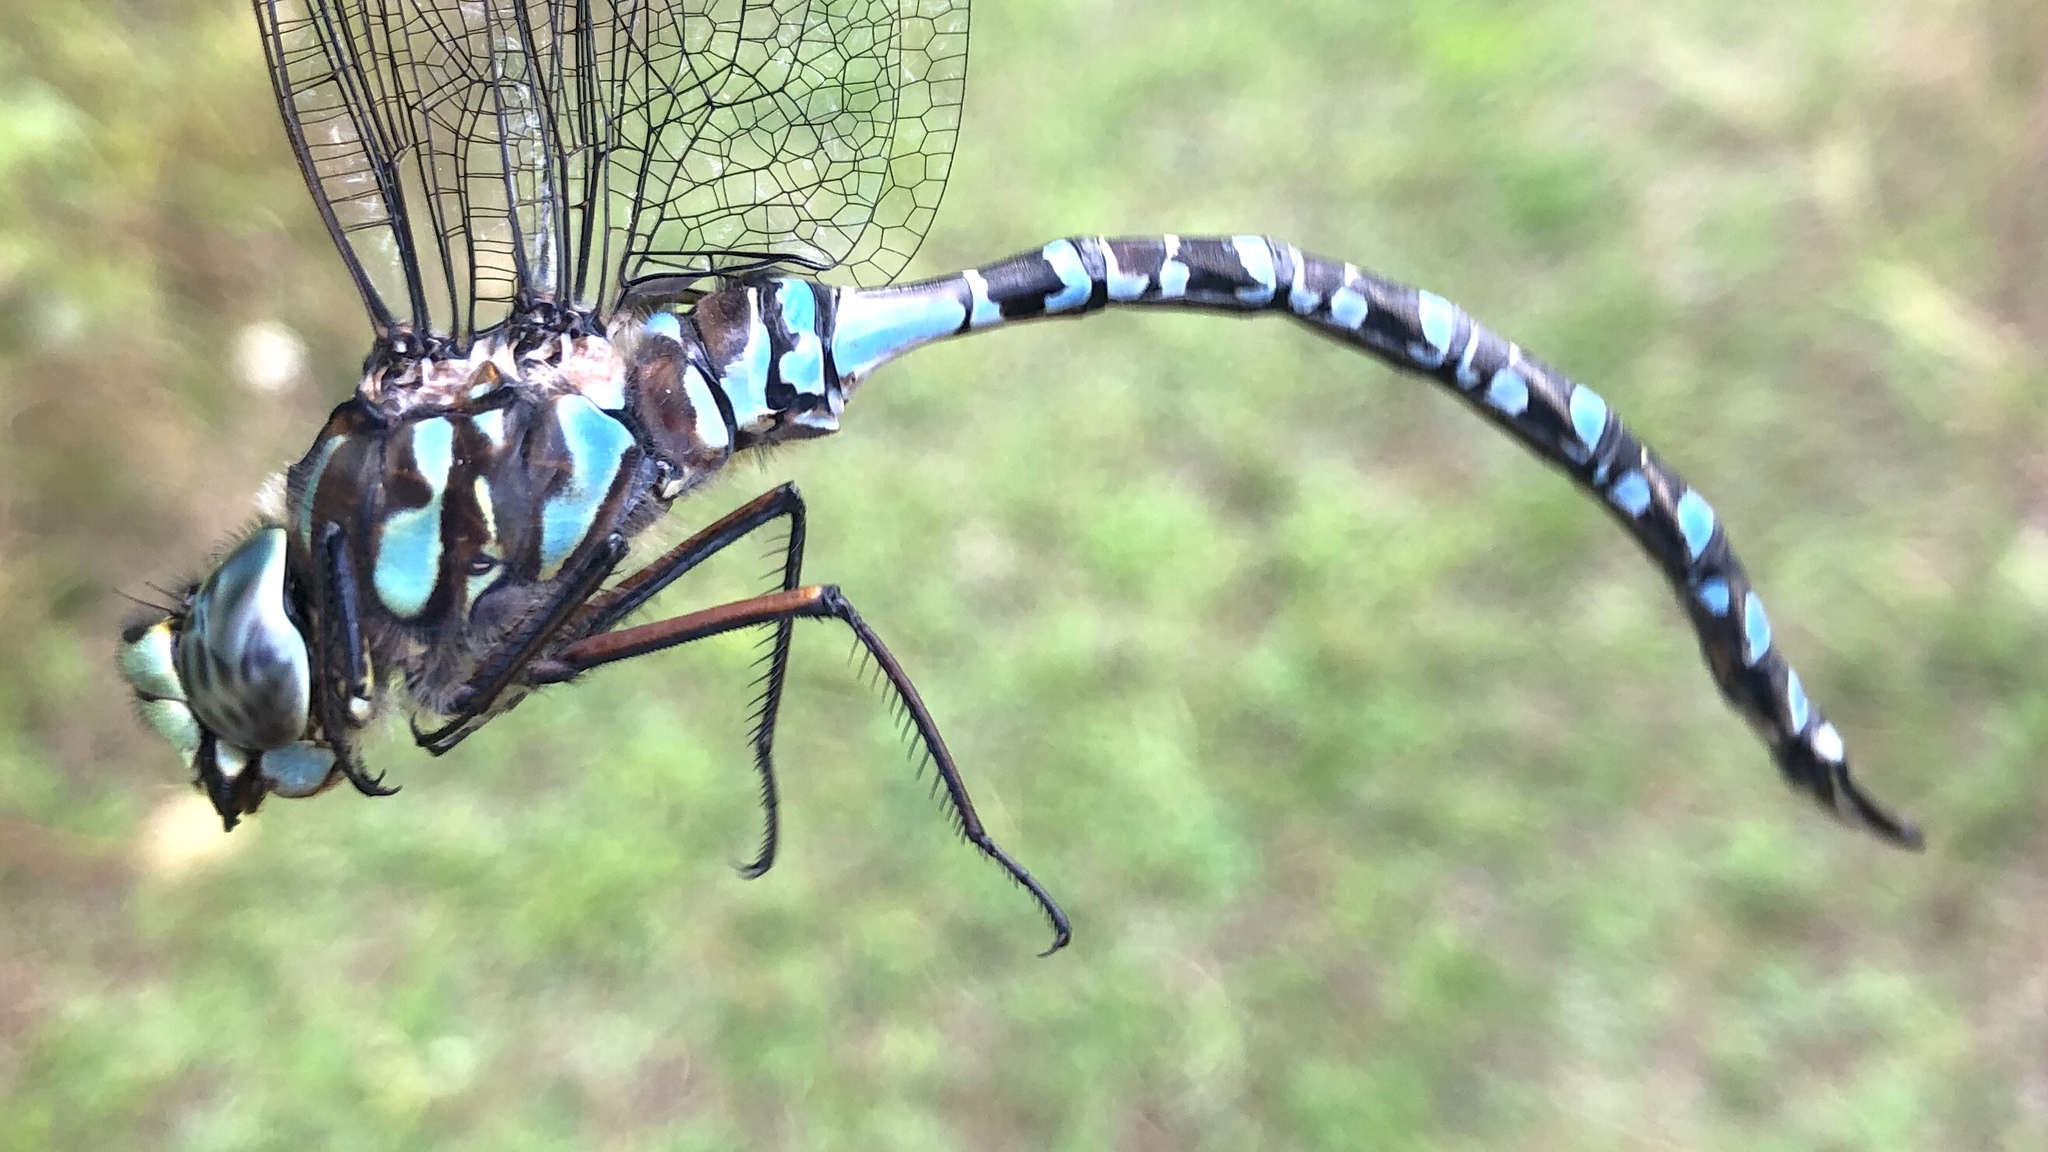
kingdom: Animalia
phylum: Arthropoda
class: Insecta
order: Odonata
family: Aeshnidae
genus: Aeshna
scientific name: Aeshna eremita
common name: Lake darner
